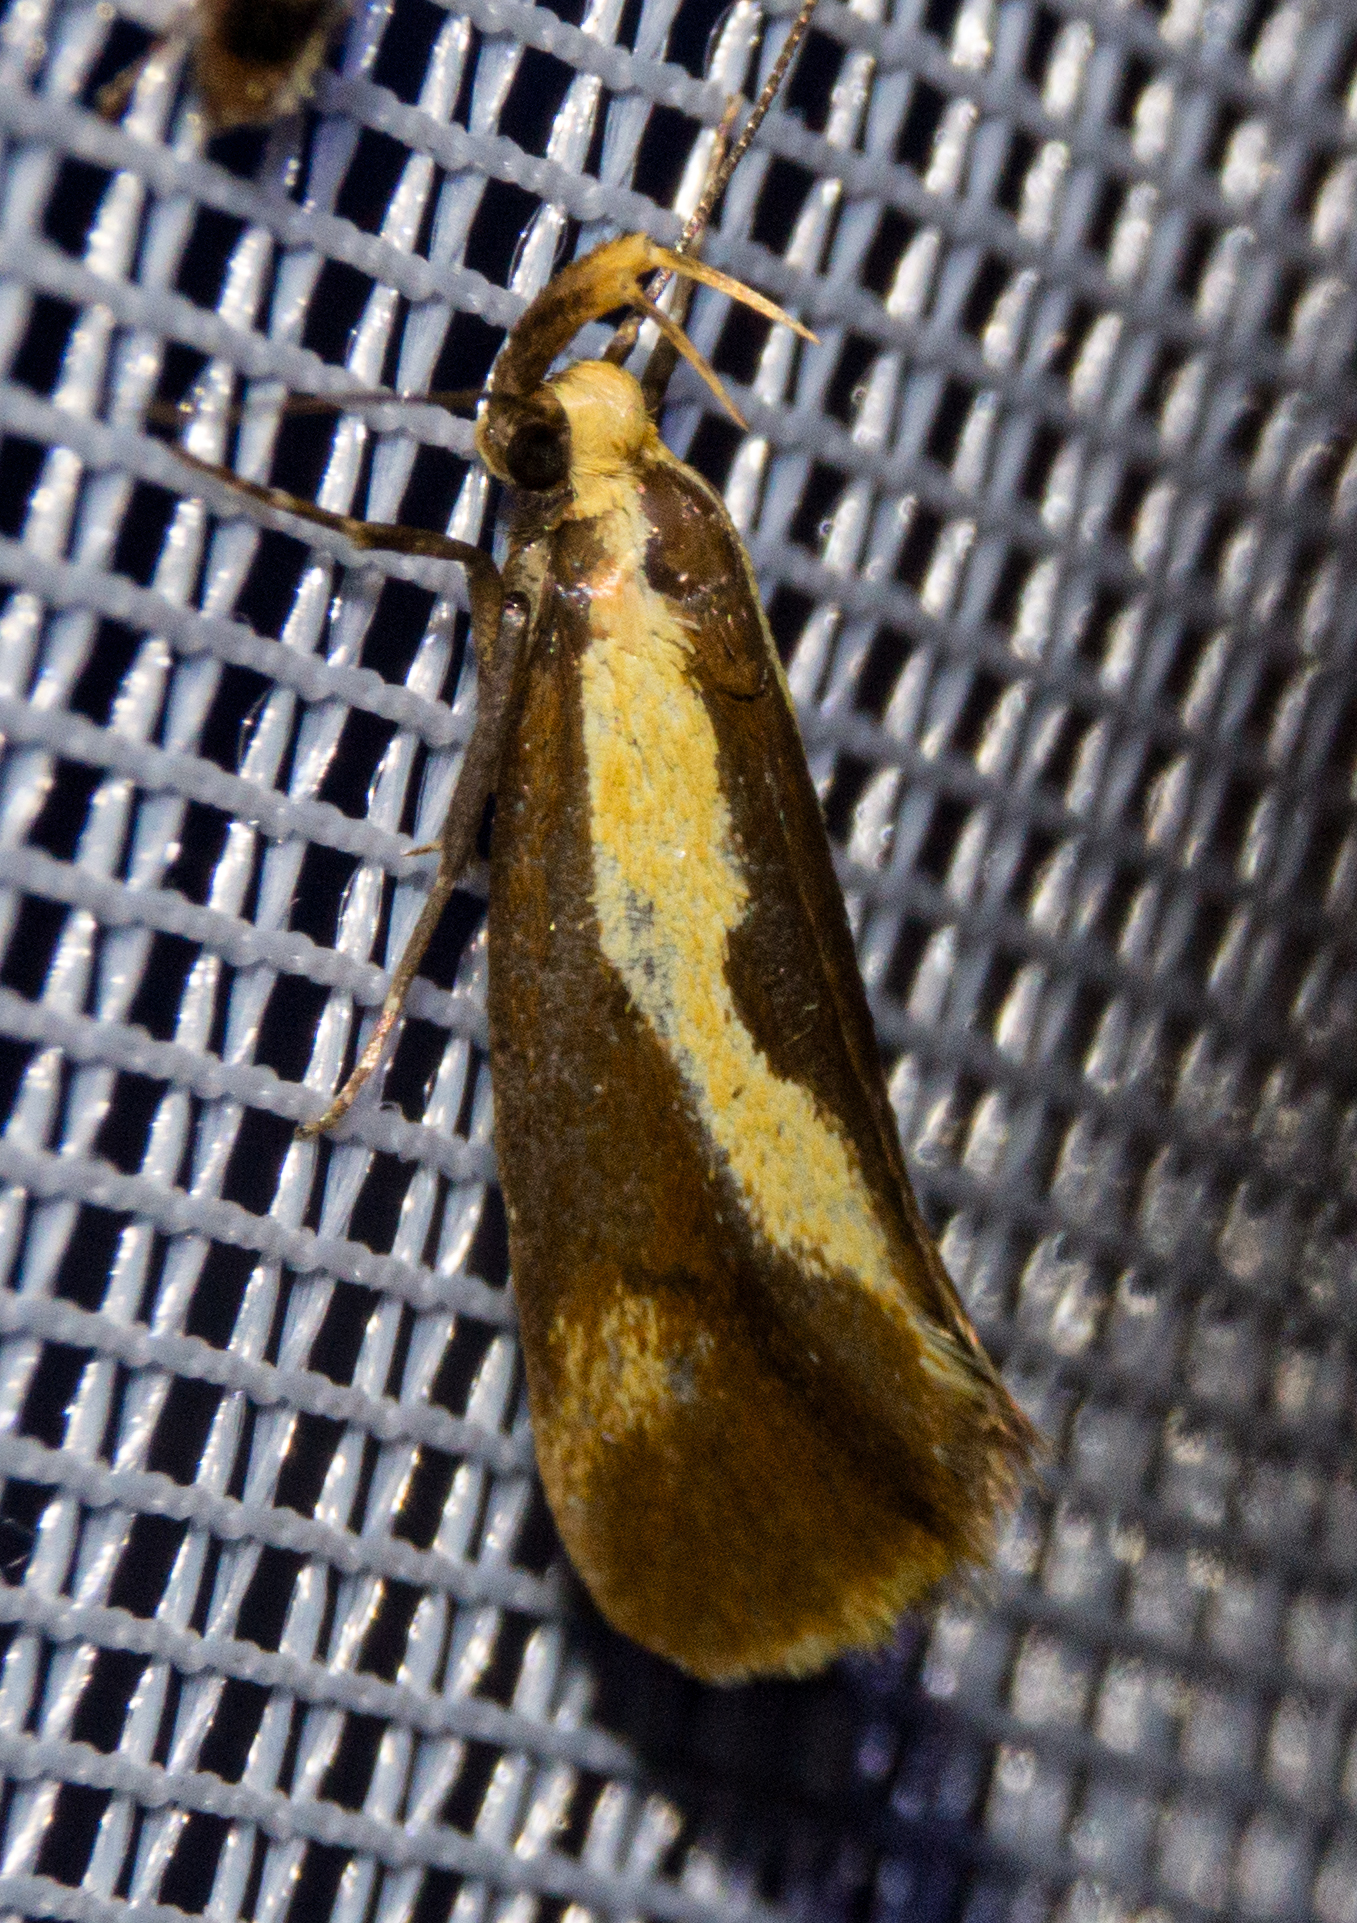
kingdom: Animalia
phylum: Arthropoda
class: Insecta
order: Lepidoptera
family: Oecophoridae
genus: Harpella
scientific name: Harpella forficella
